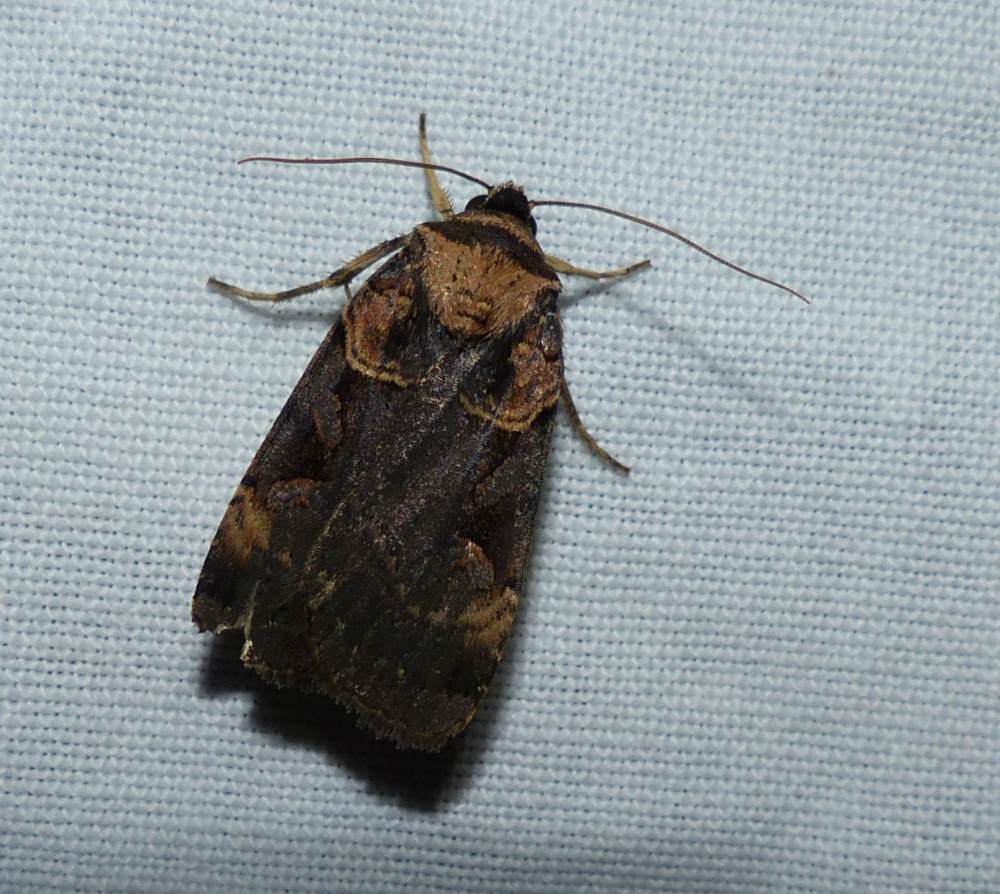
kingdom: Animalia
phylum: Arthropoda
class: Insecta
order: Lepidoptera
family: Noctuidae
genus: Pseudohermonassa
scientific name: Pseudohermonassa bicarnea
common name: Pink spotted dart
